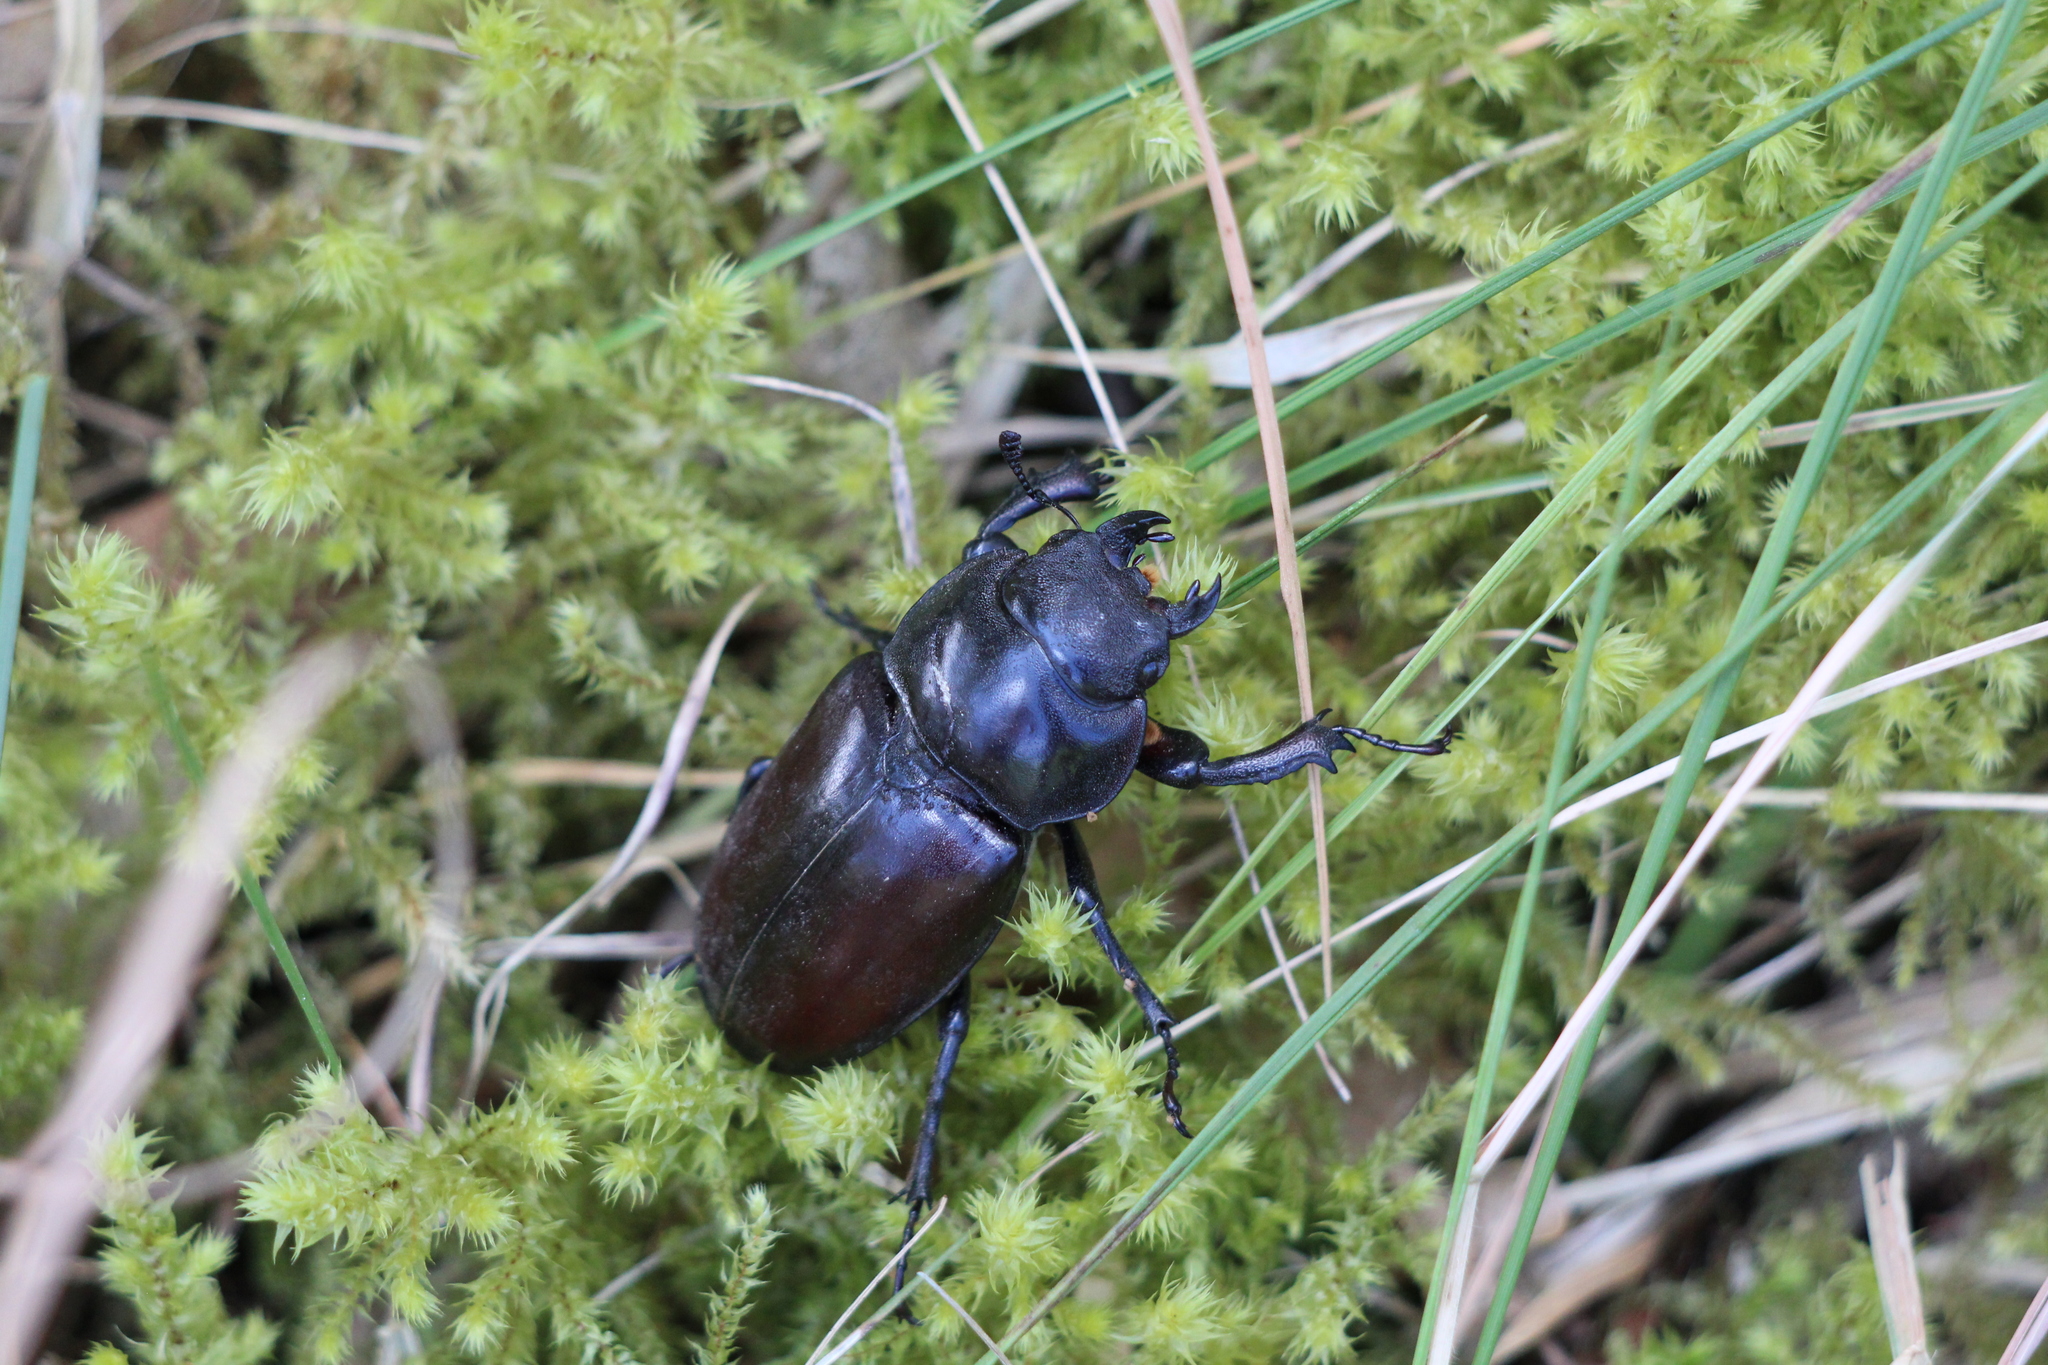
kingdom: Animalia
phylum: Arthropoda
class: Insecta
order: Coleoptera
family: Lucanidae
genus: Lucanus
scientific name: Lucanus cervus
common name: Stag beetle
